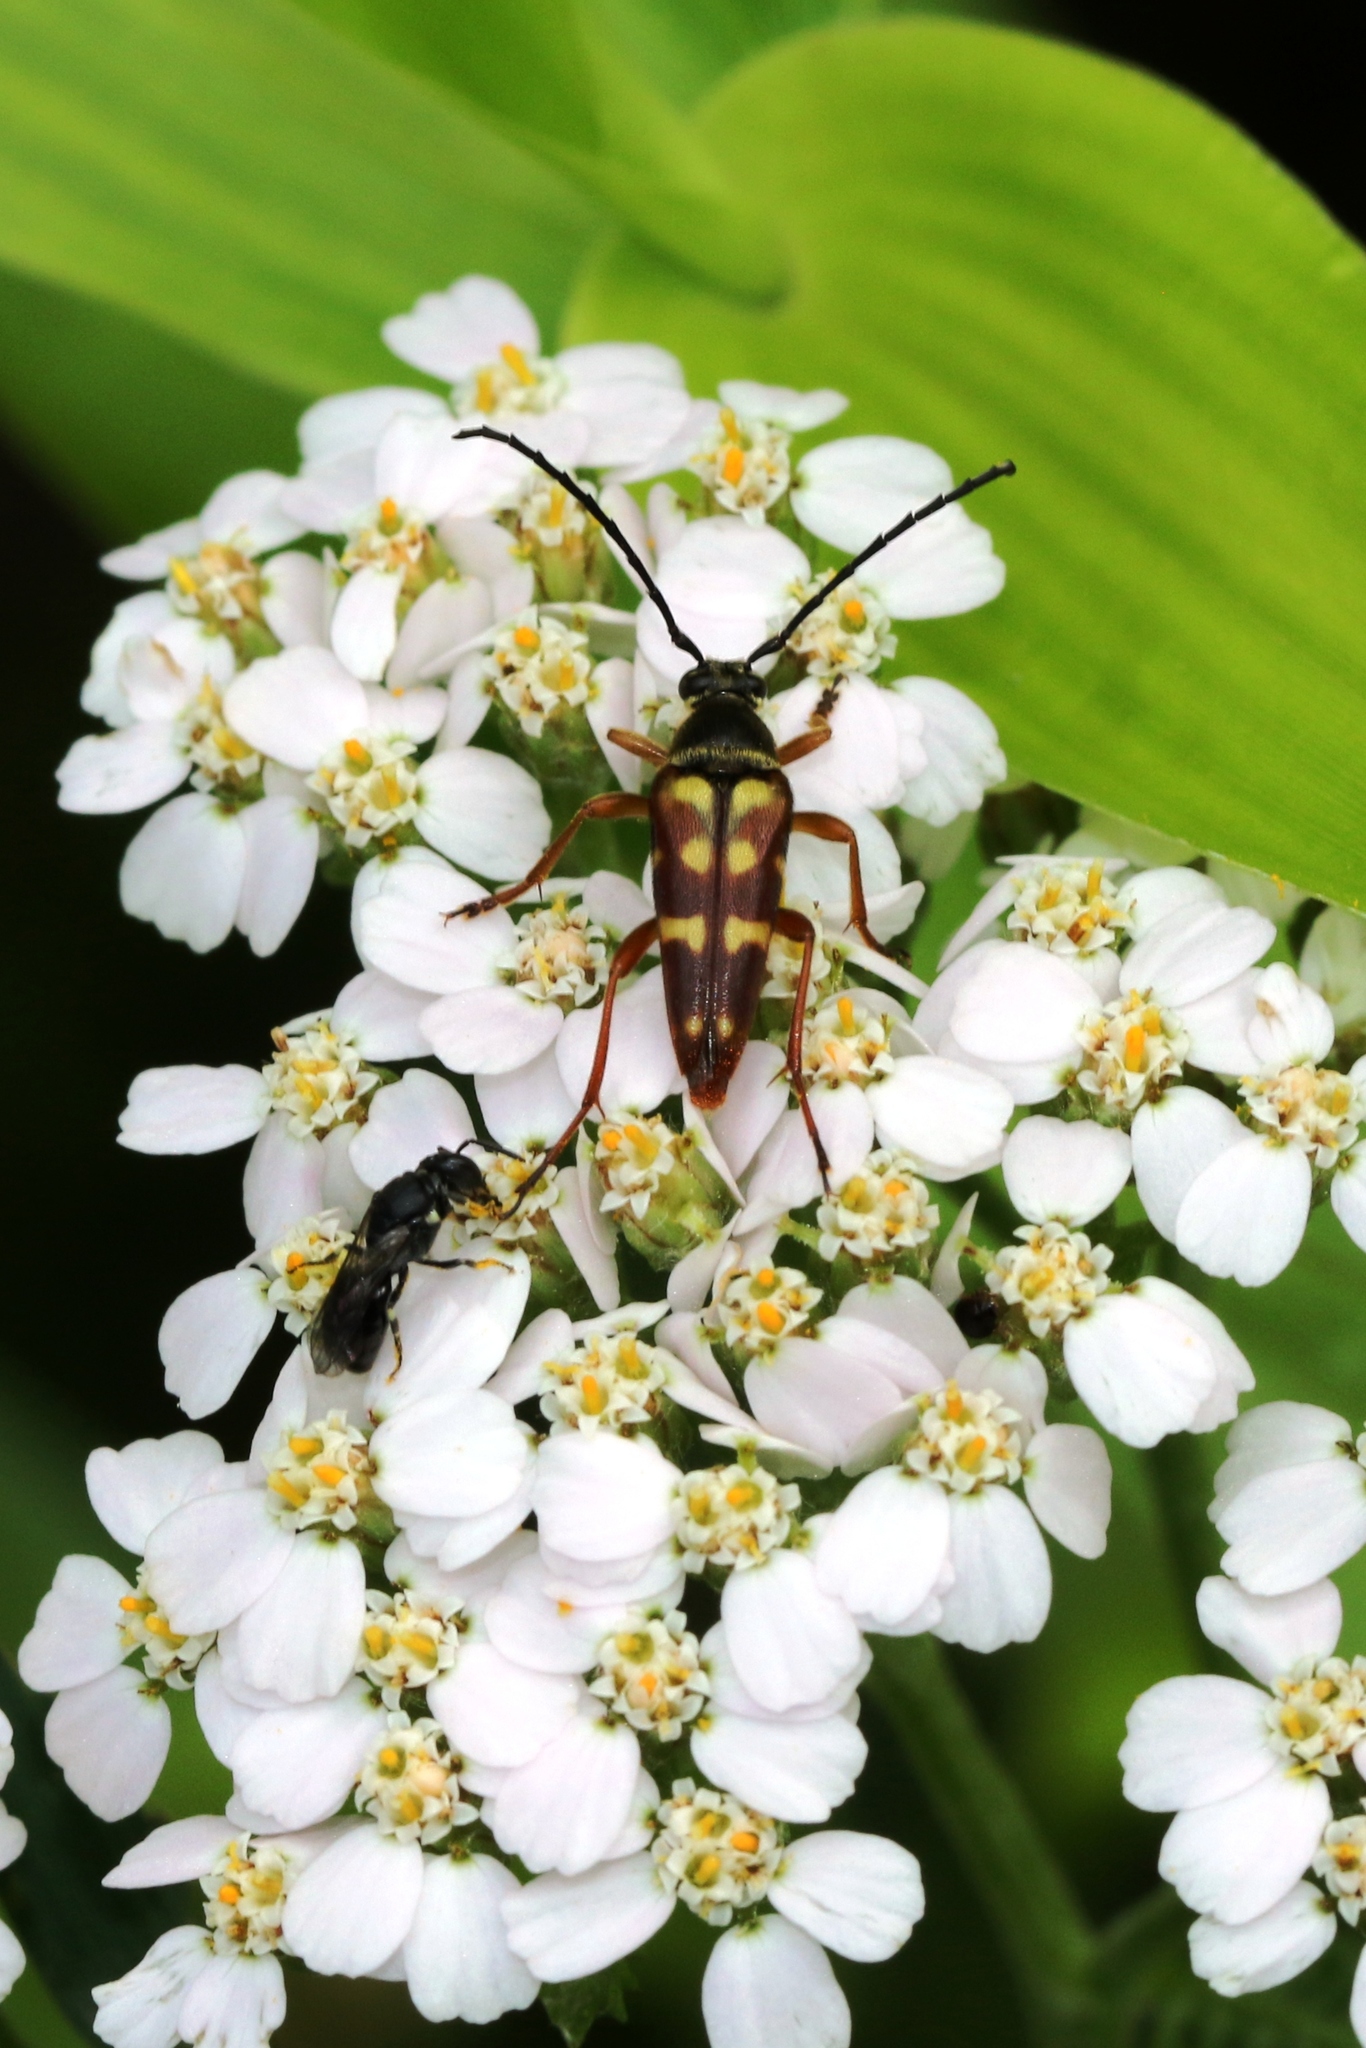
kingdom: Animalia
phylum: Arthropoda
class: Insecta
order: Coleoptera
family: Cerambycidae
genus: Typocerus
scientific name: Typocerus velutinus
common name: Banded longhorn beetle
